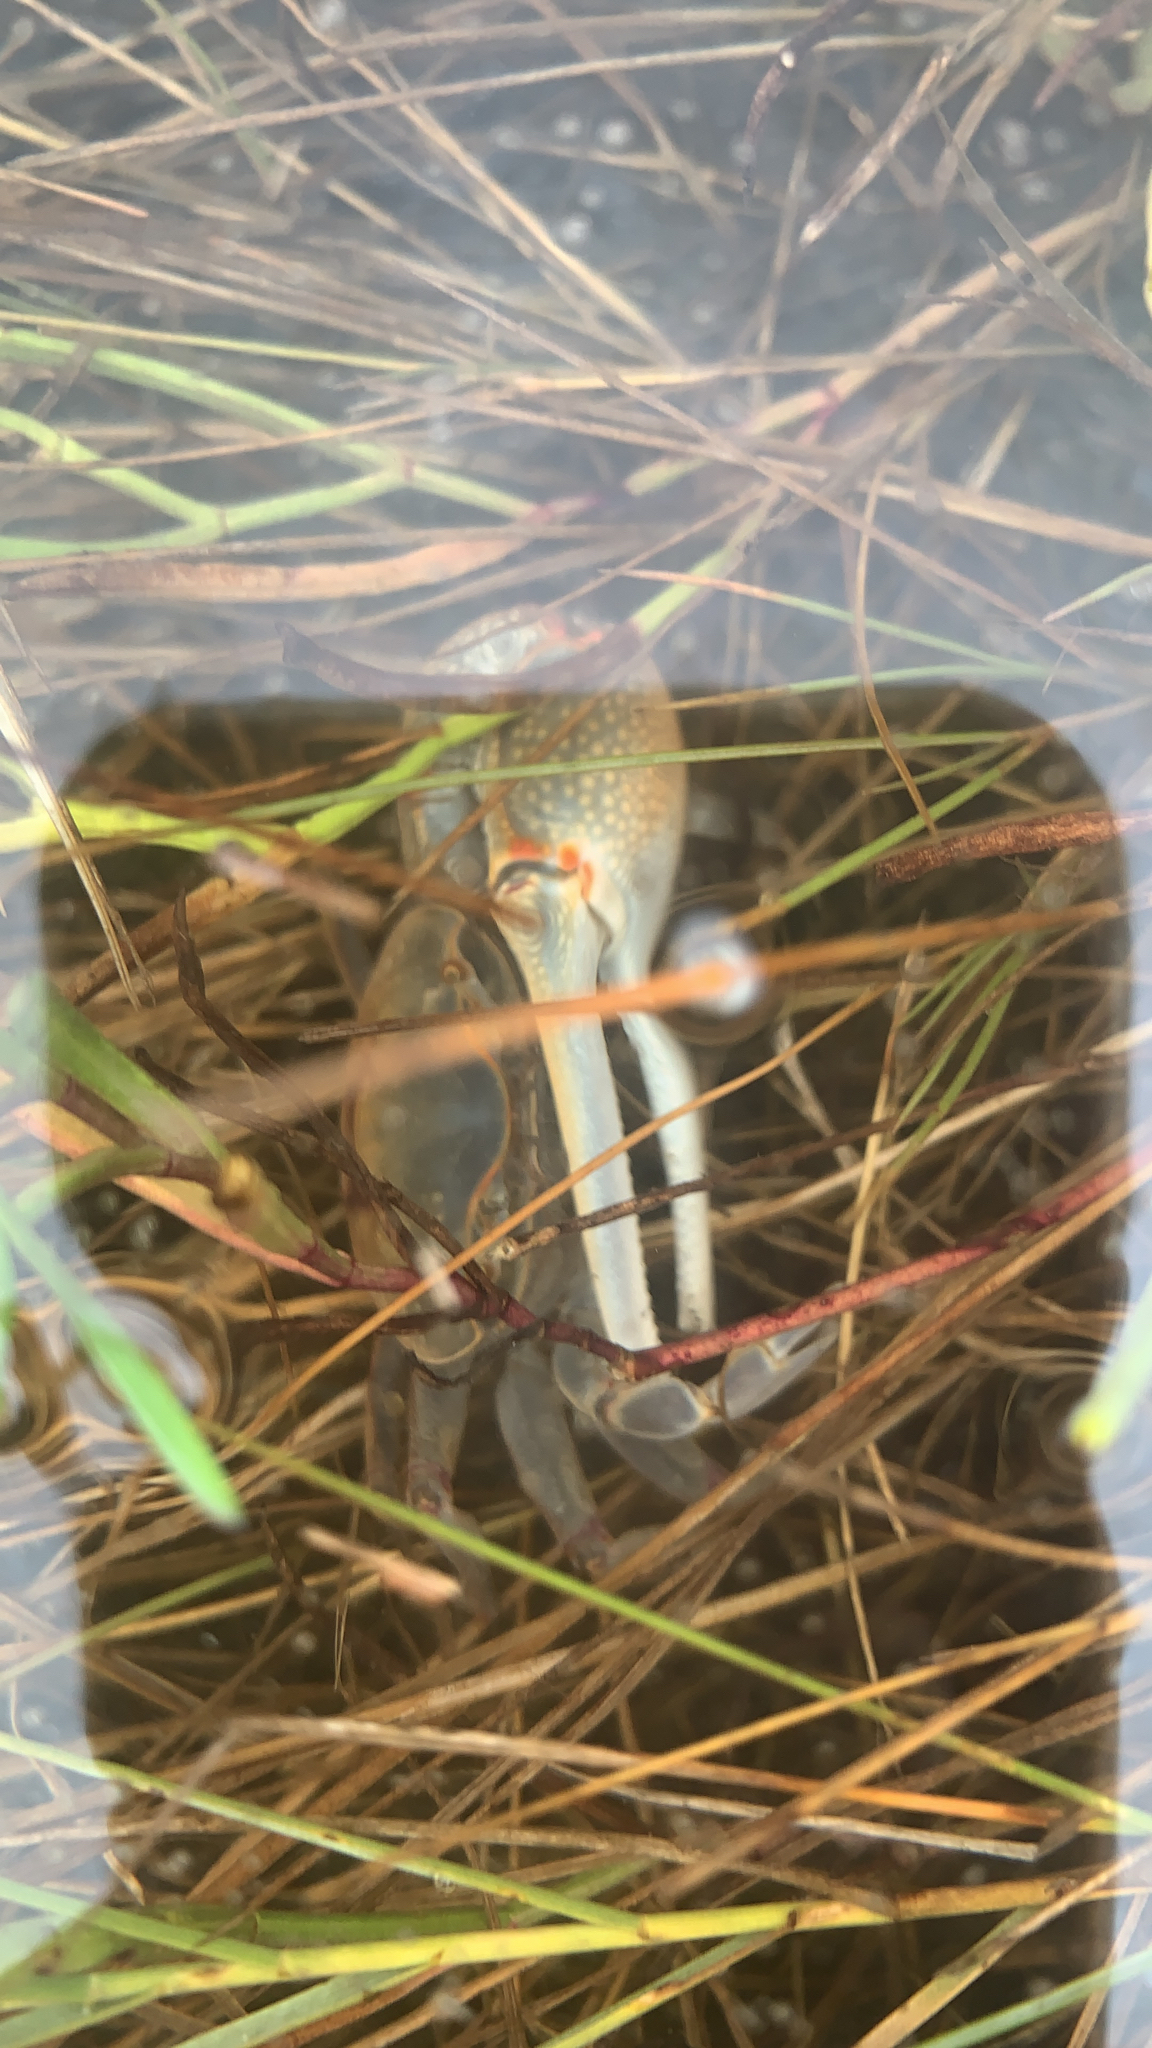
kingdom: Animalia
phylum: Arthropoda
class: Malacostraca
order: Decapoda
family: Ocypodidae
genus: Minuca
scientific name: Minuca minax
